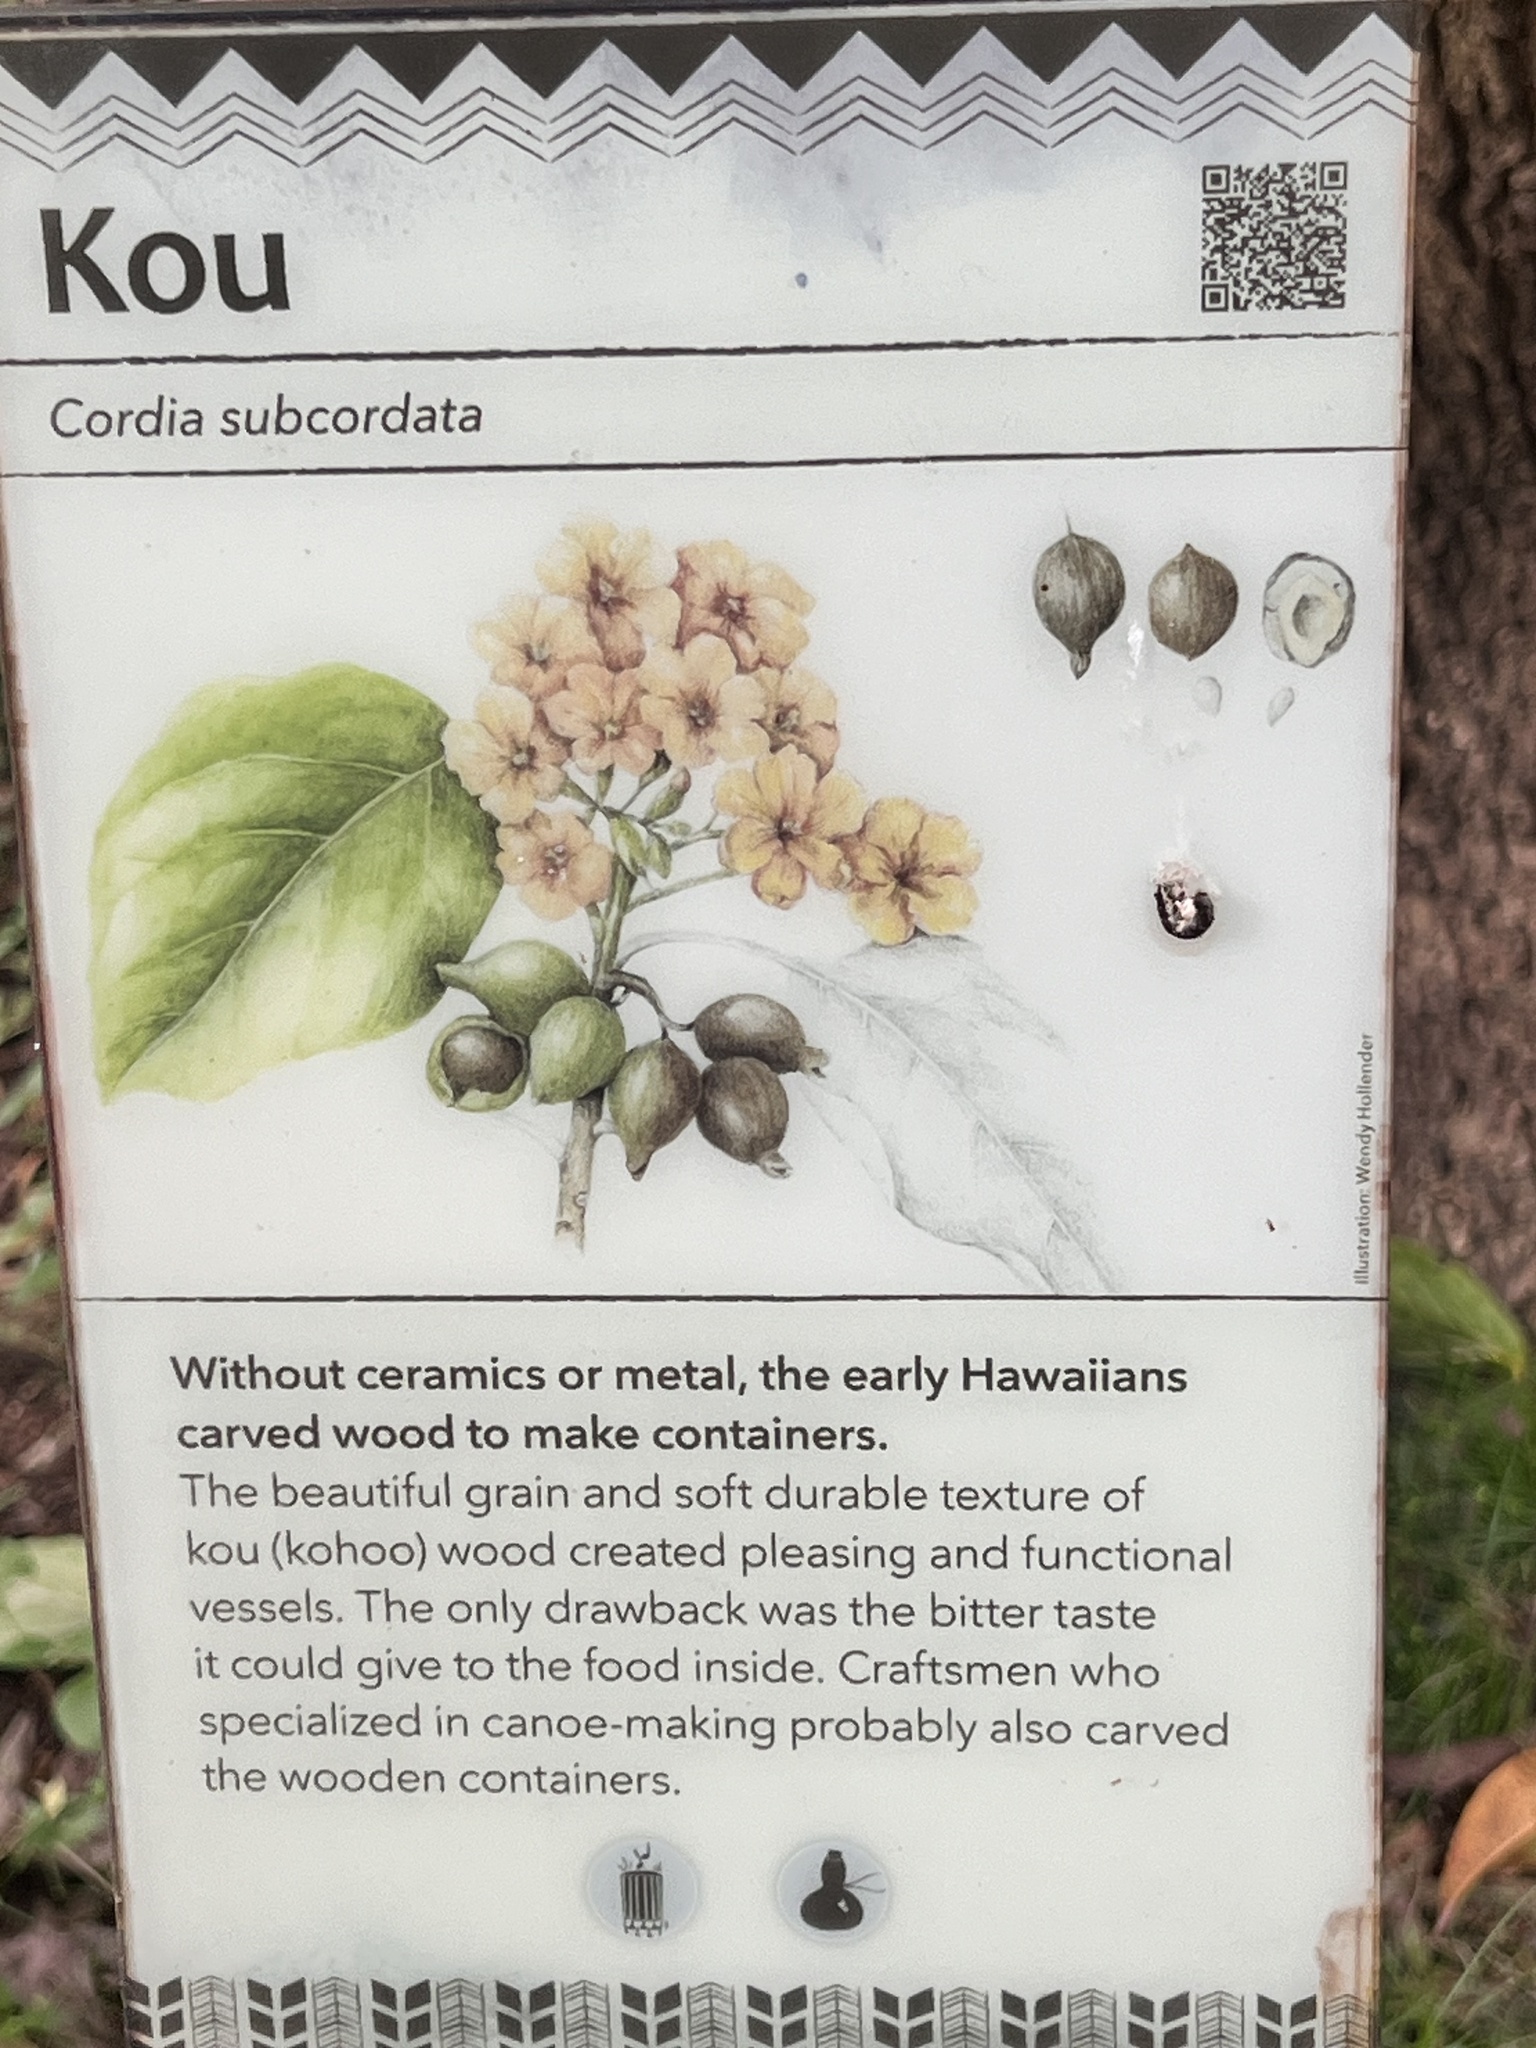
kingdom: Plantae
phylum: Tracheophyta
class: Magnoliopsida
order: Boraginales
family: Cordiaceae
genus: Cordia
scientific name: Cordia subcordata
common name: Mareer
